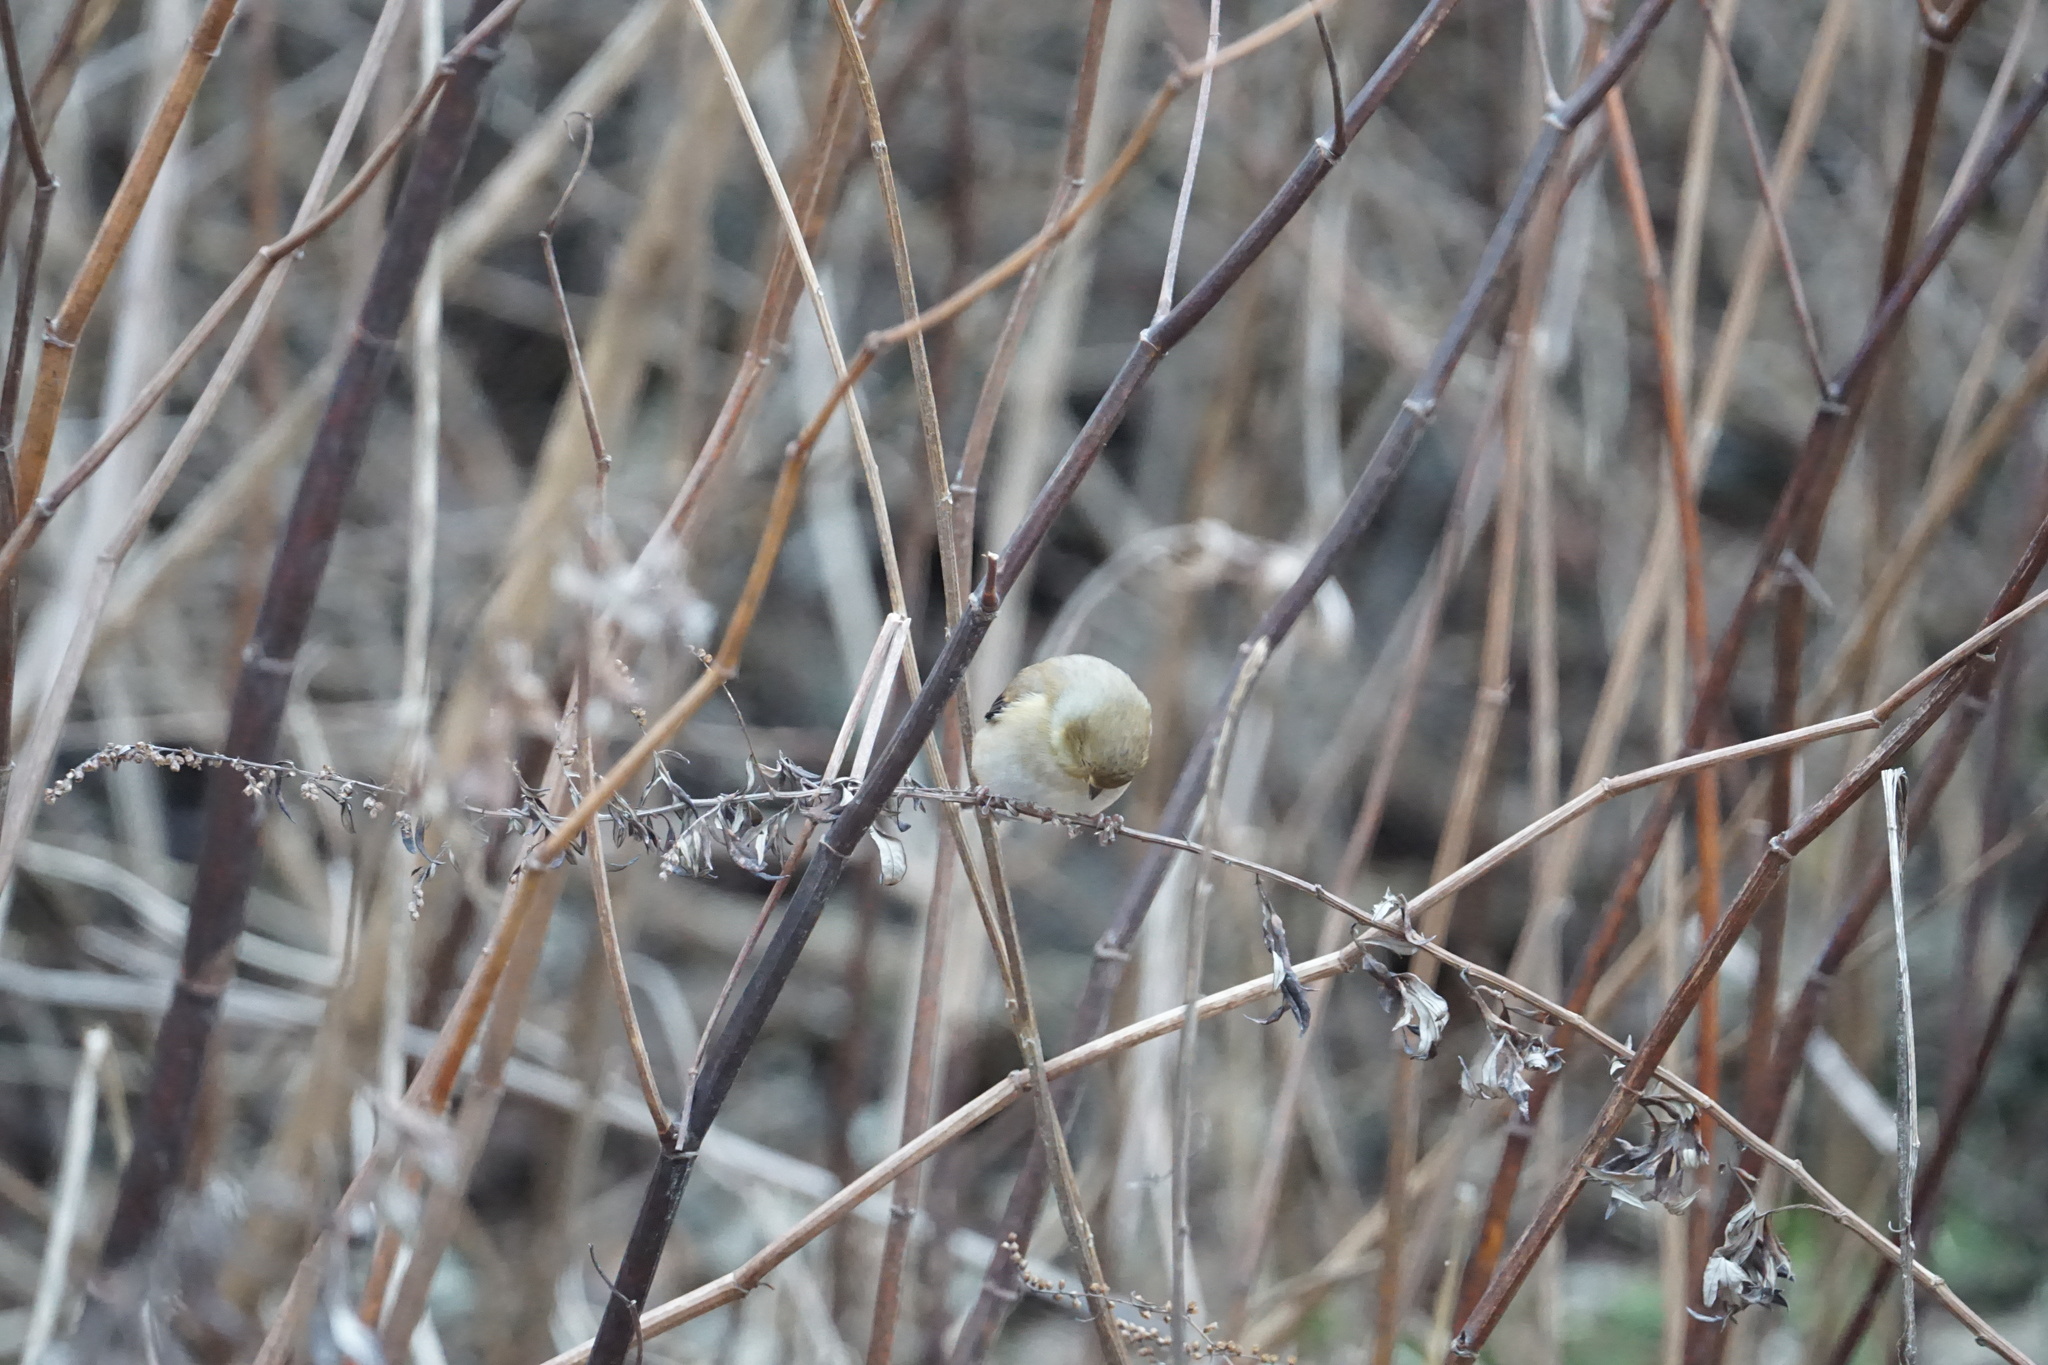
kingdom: Animalia
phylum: Chordata
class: Aves
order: Passeriformes
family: Fringillidae
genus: Spinus
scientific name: Spinus tristis
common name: American goldfinch
